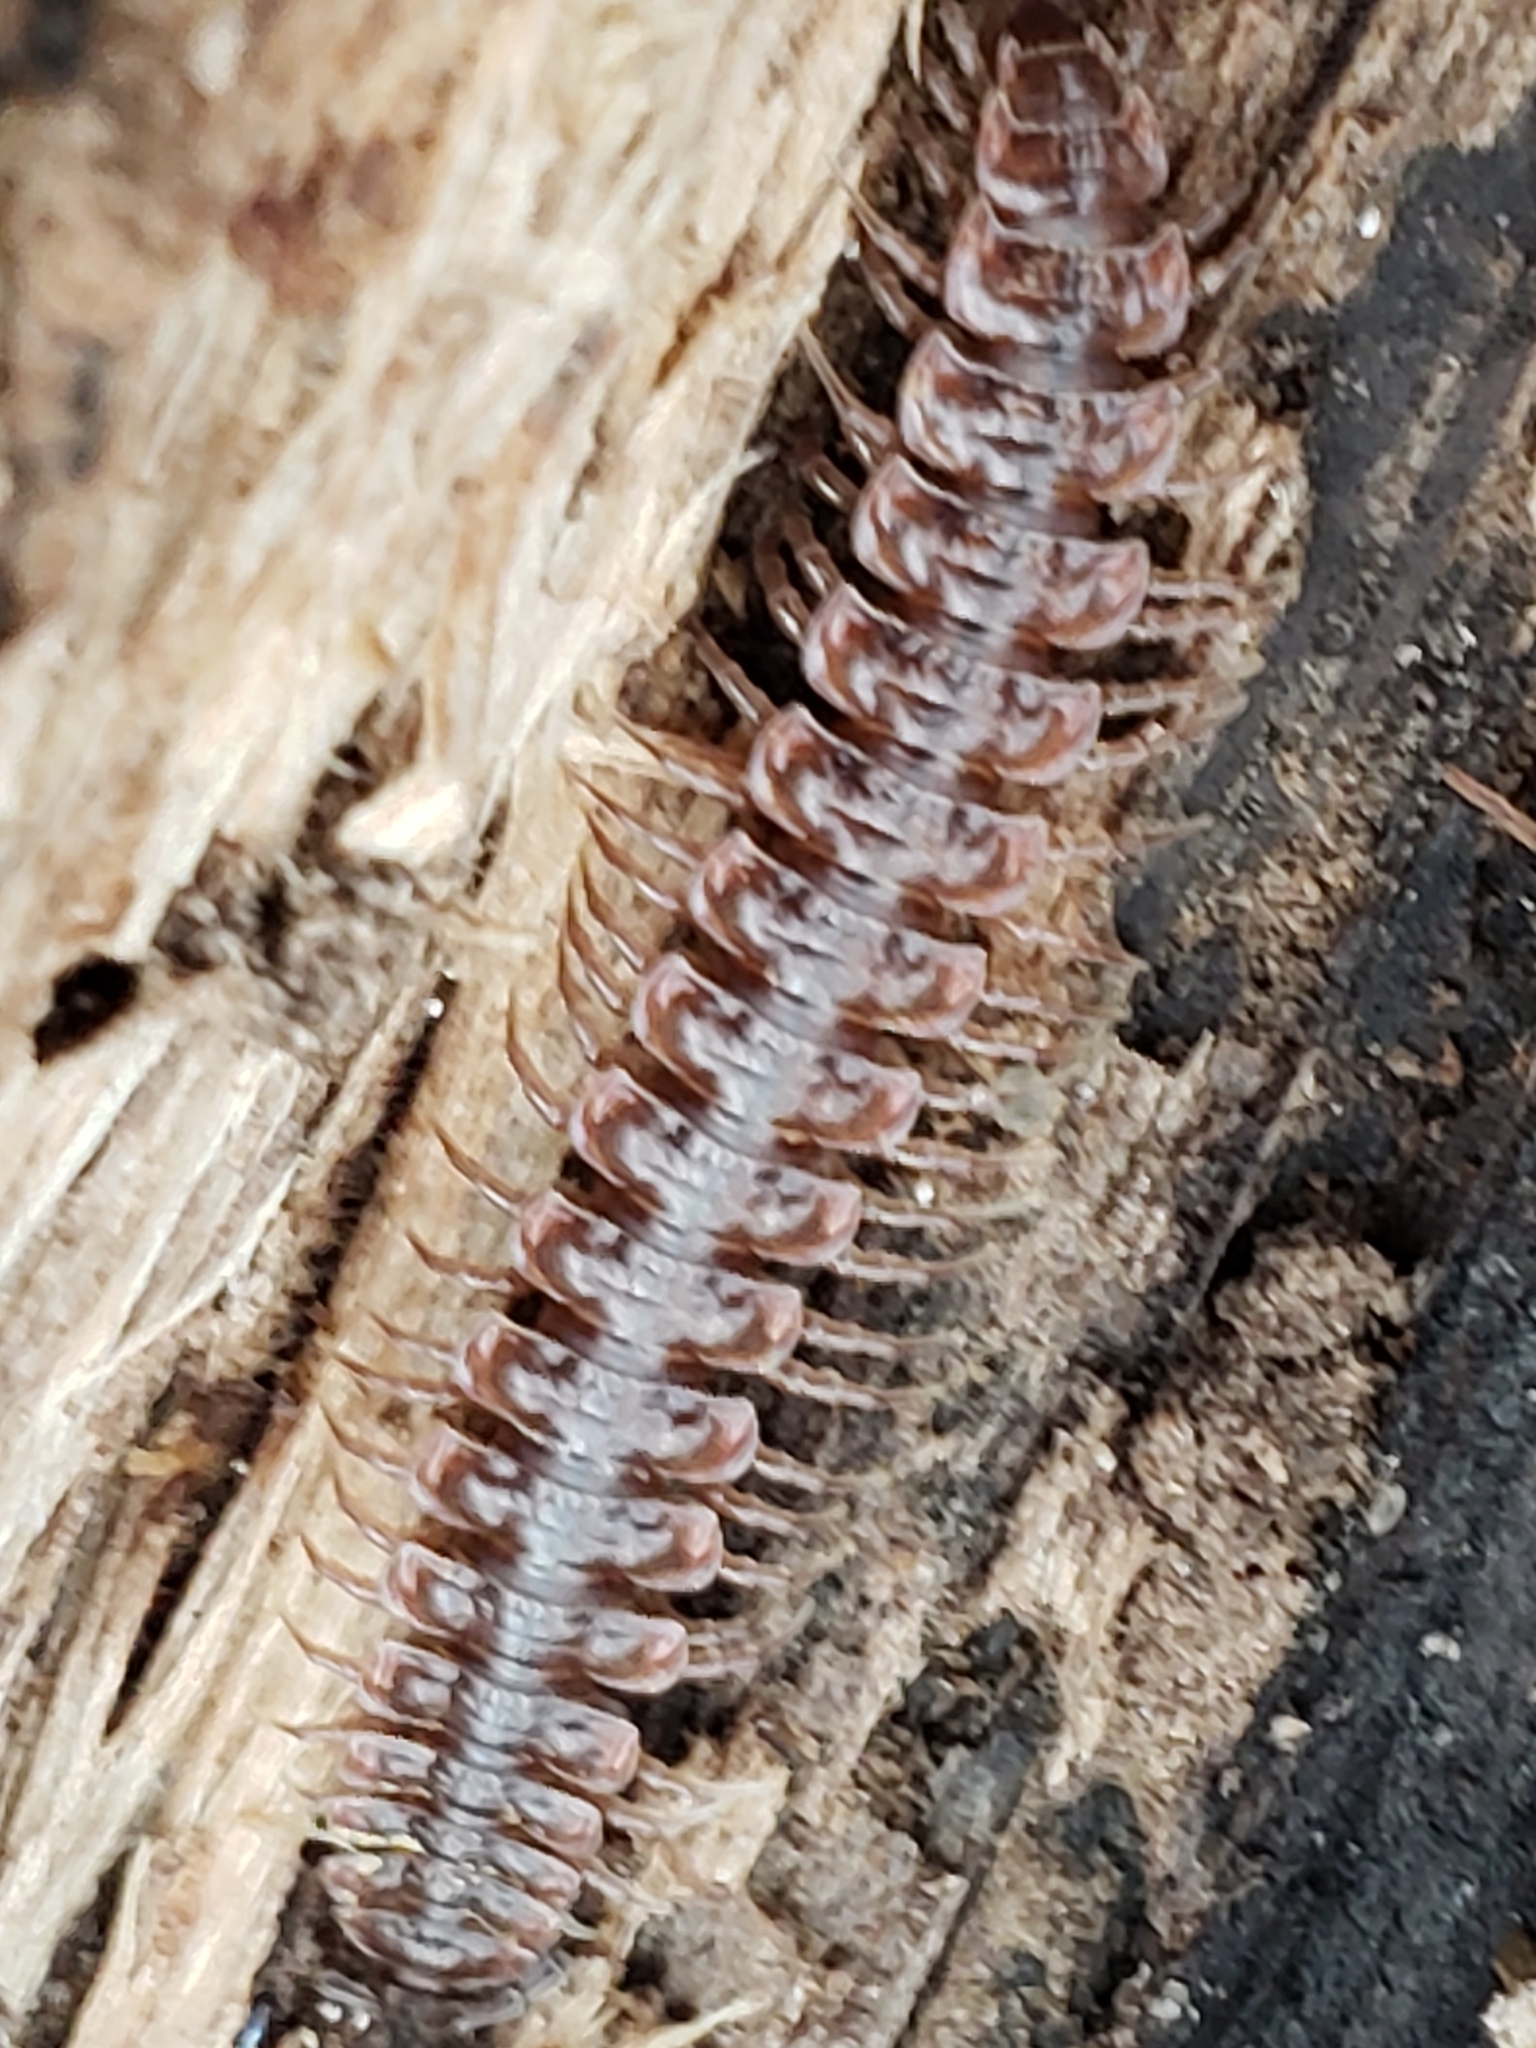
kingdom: Animalia
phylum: Arthropoda
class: Diplopoda
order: Polydesmida
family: Polydesmidae
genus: Pseudopolydesmus
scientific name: Pseudopolydesmus serratus
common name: Common pink flat-back millipede
